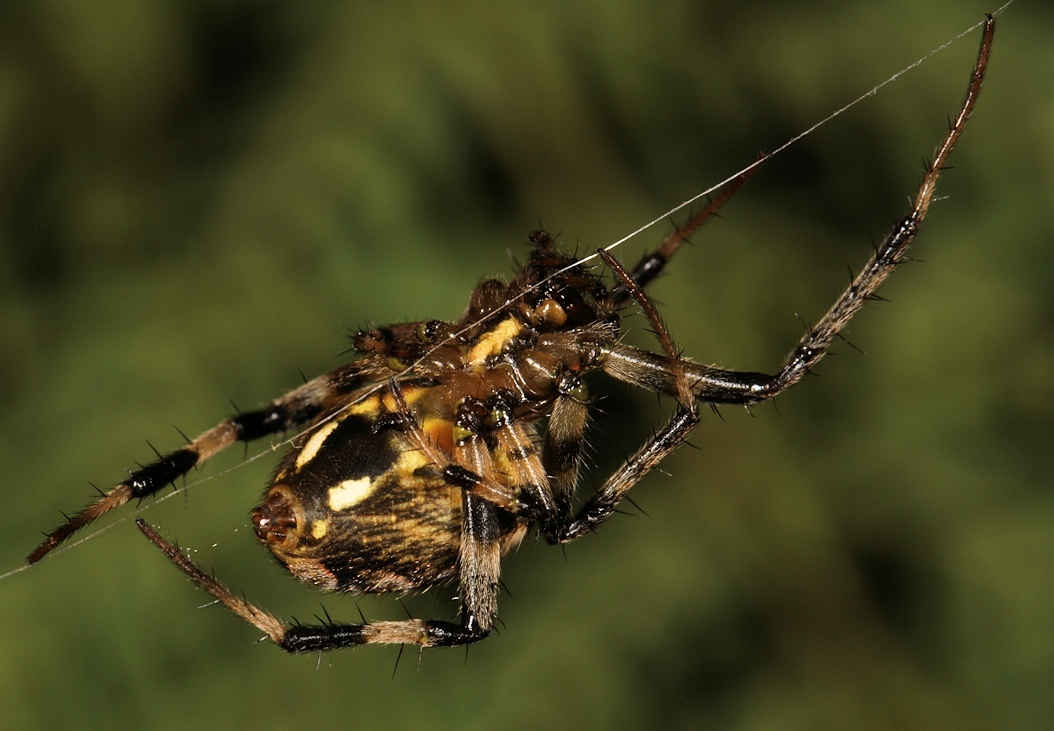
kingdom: Animalia
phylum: Arthropoda
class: Arachnida
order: Araneae
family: Araneidae
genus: Neoscona
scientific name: Neoscona blondeli
